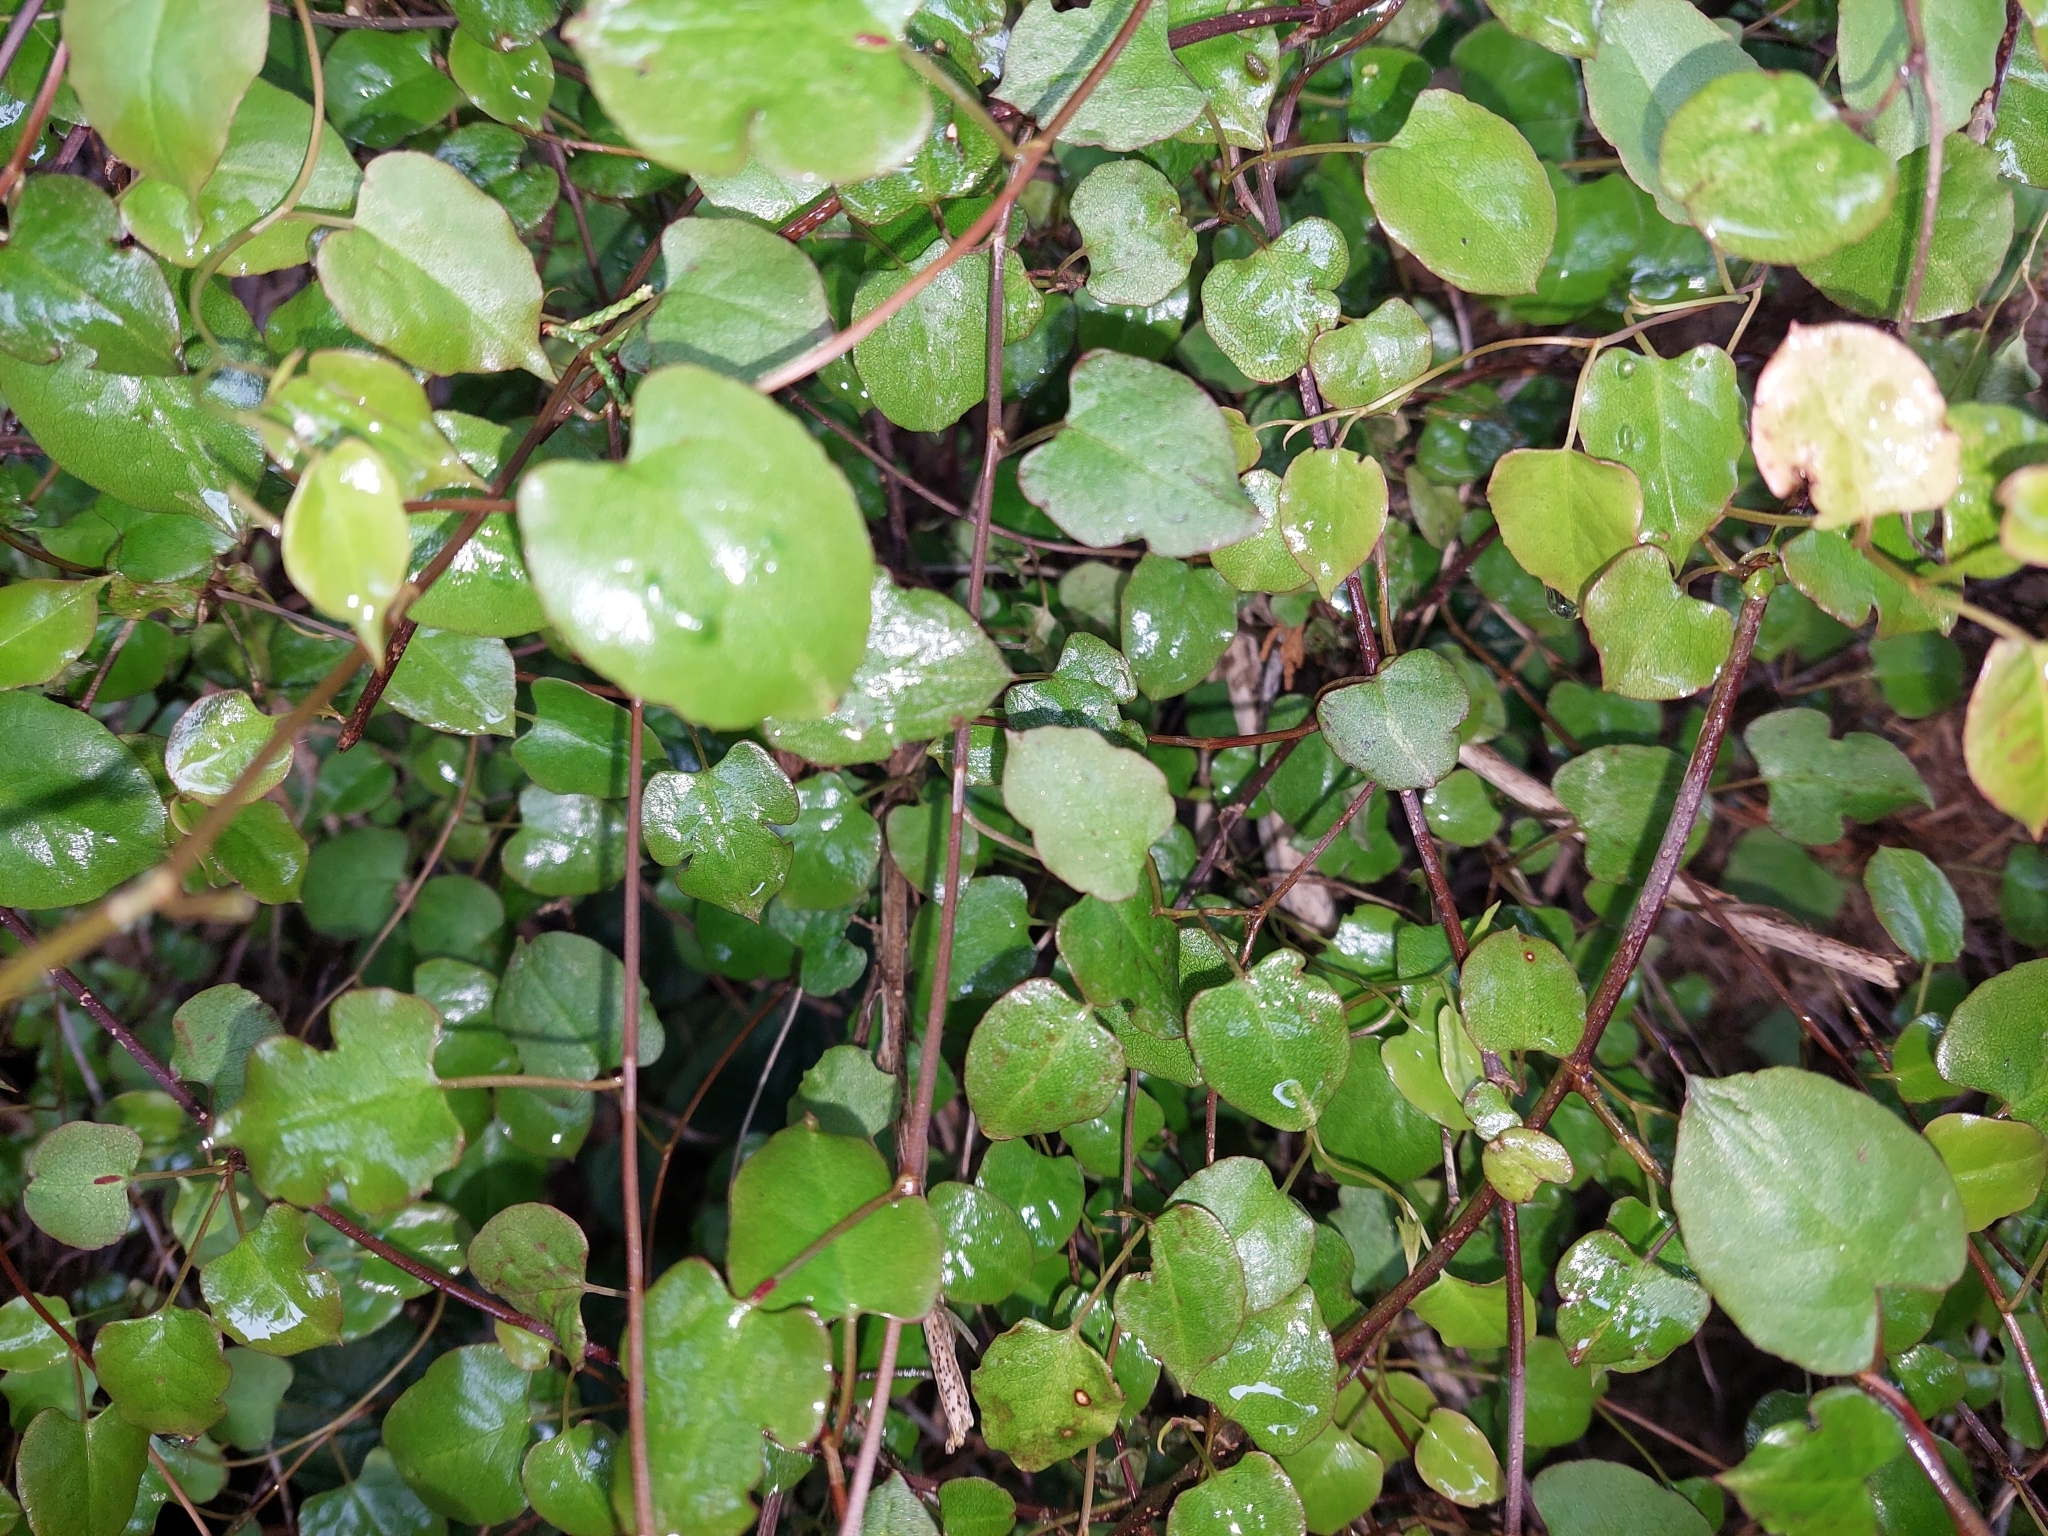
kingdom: Plantae
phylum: Tracheophyta
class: Magnoliopsida
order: Caryophyllales
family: Polygonaceae
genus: Muehlenbeckia
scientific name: Muehlenbeckia australis
